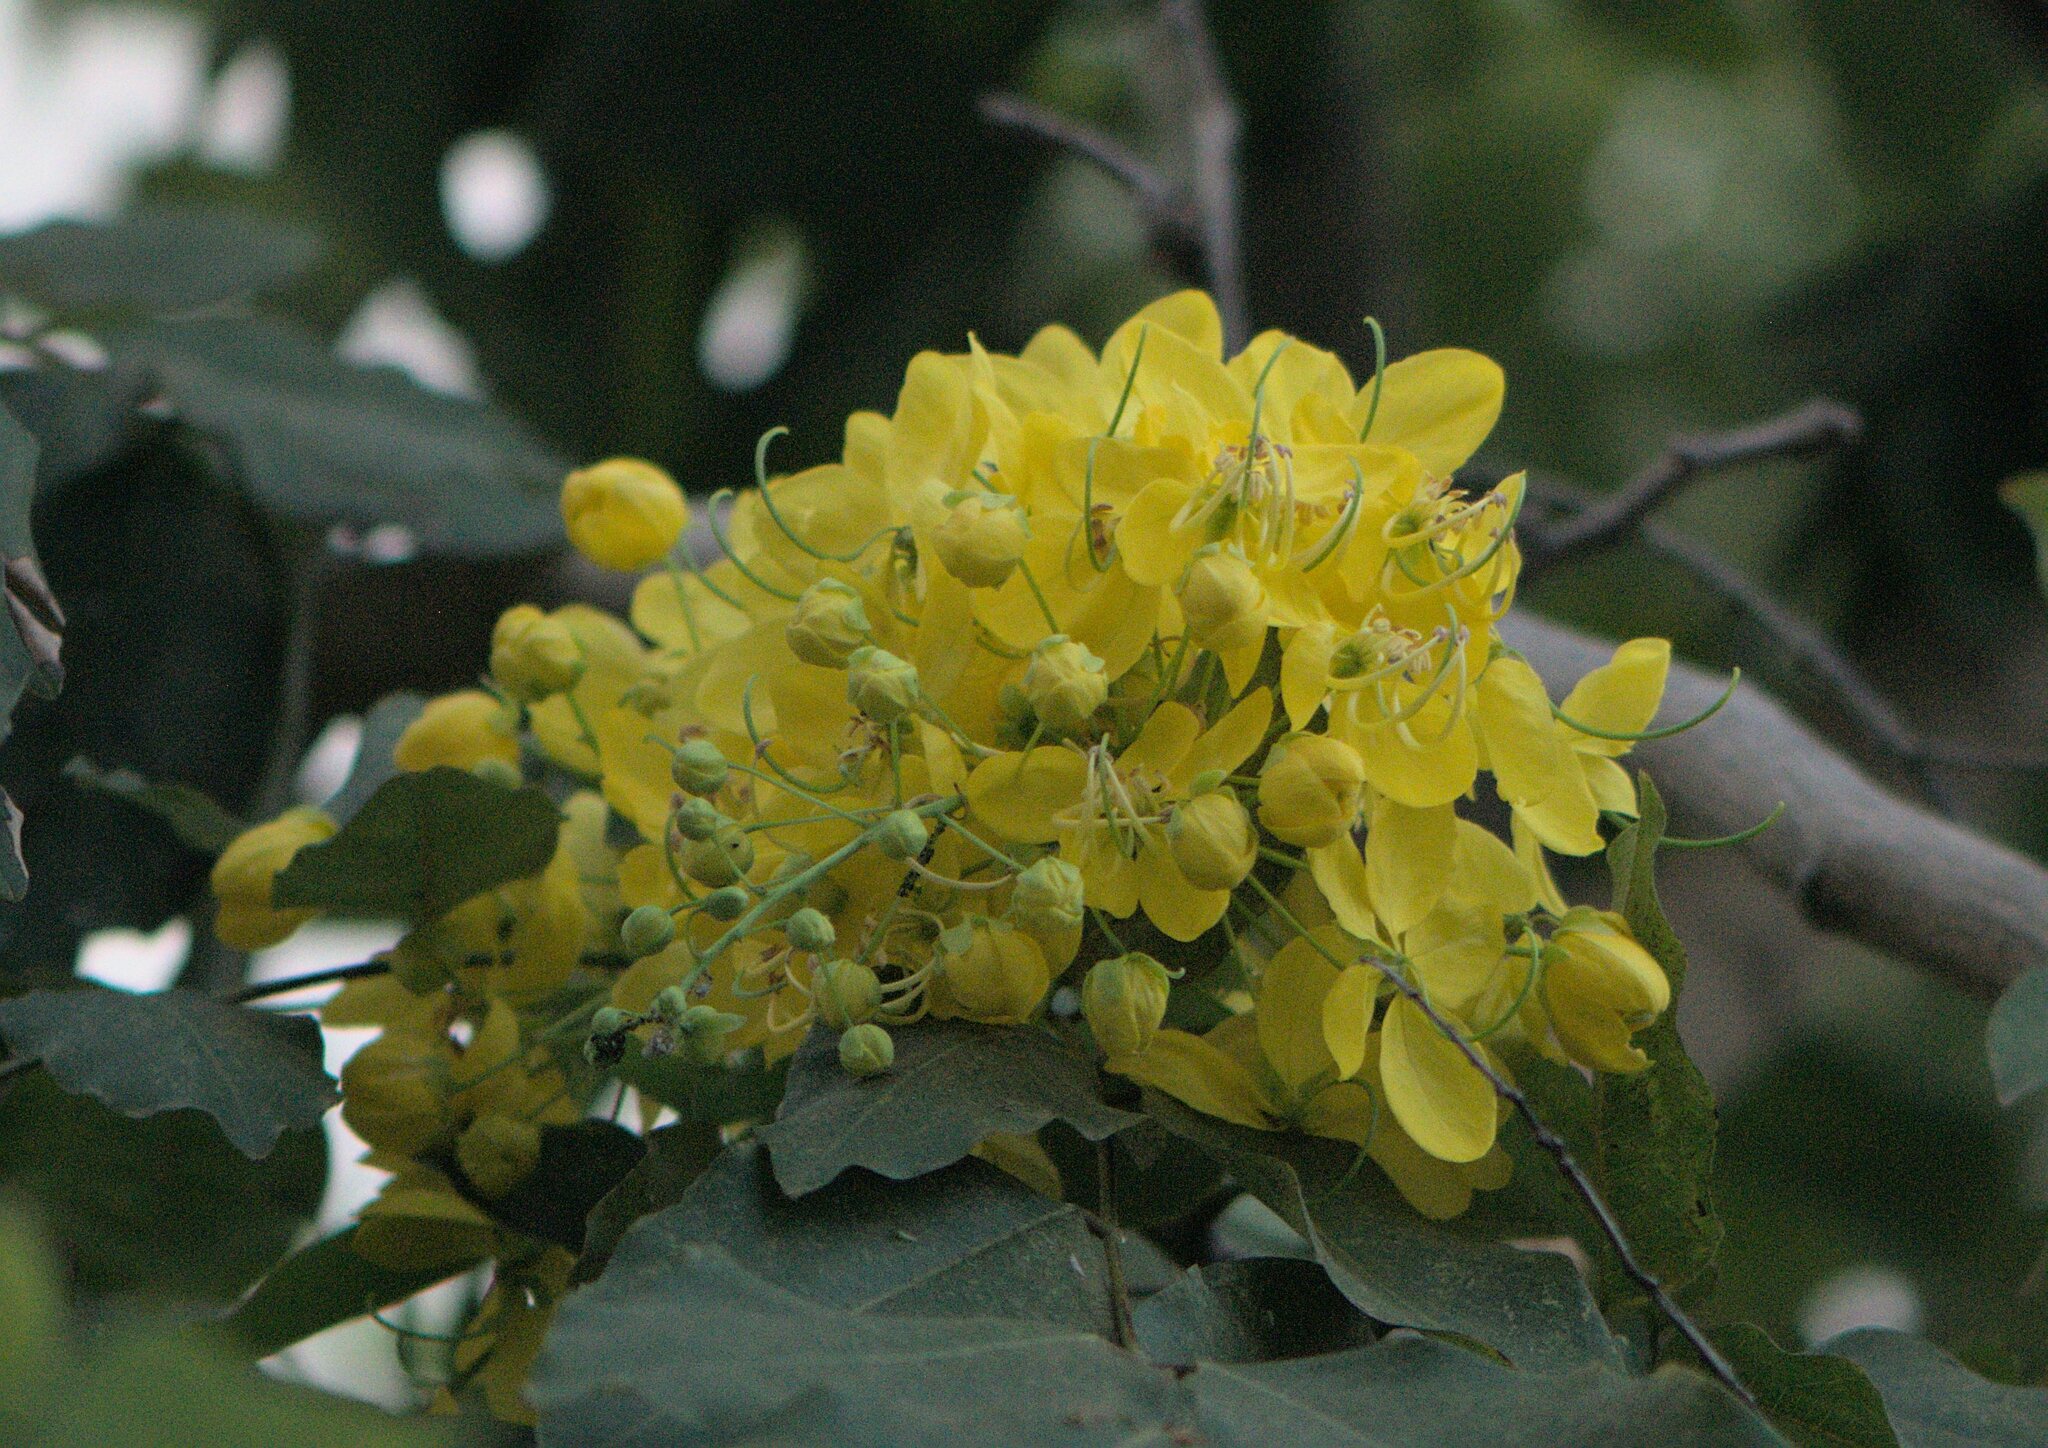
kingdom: Plantae
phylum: Tracheophyta
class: Magnoliopsida
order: Fabales
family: Fabaceae
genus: Cassia
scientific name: Cassia fistula
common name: Golden shower
